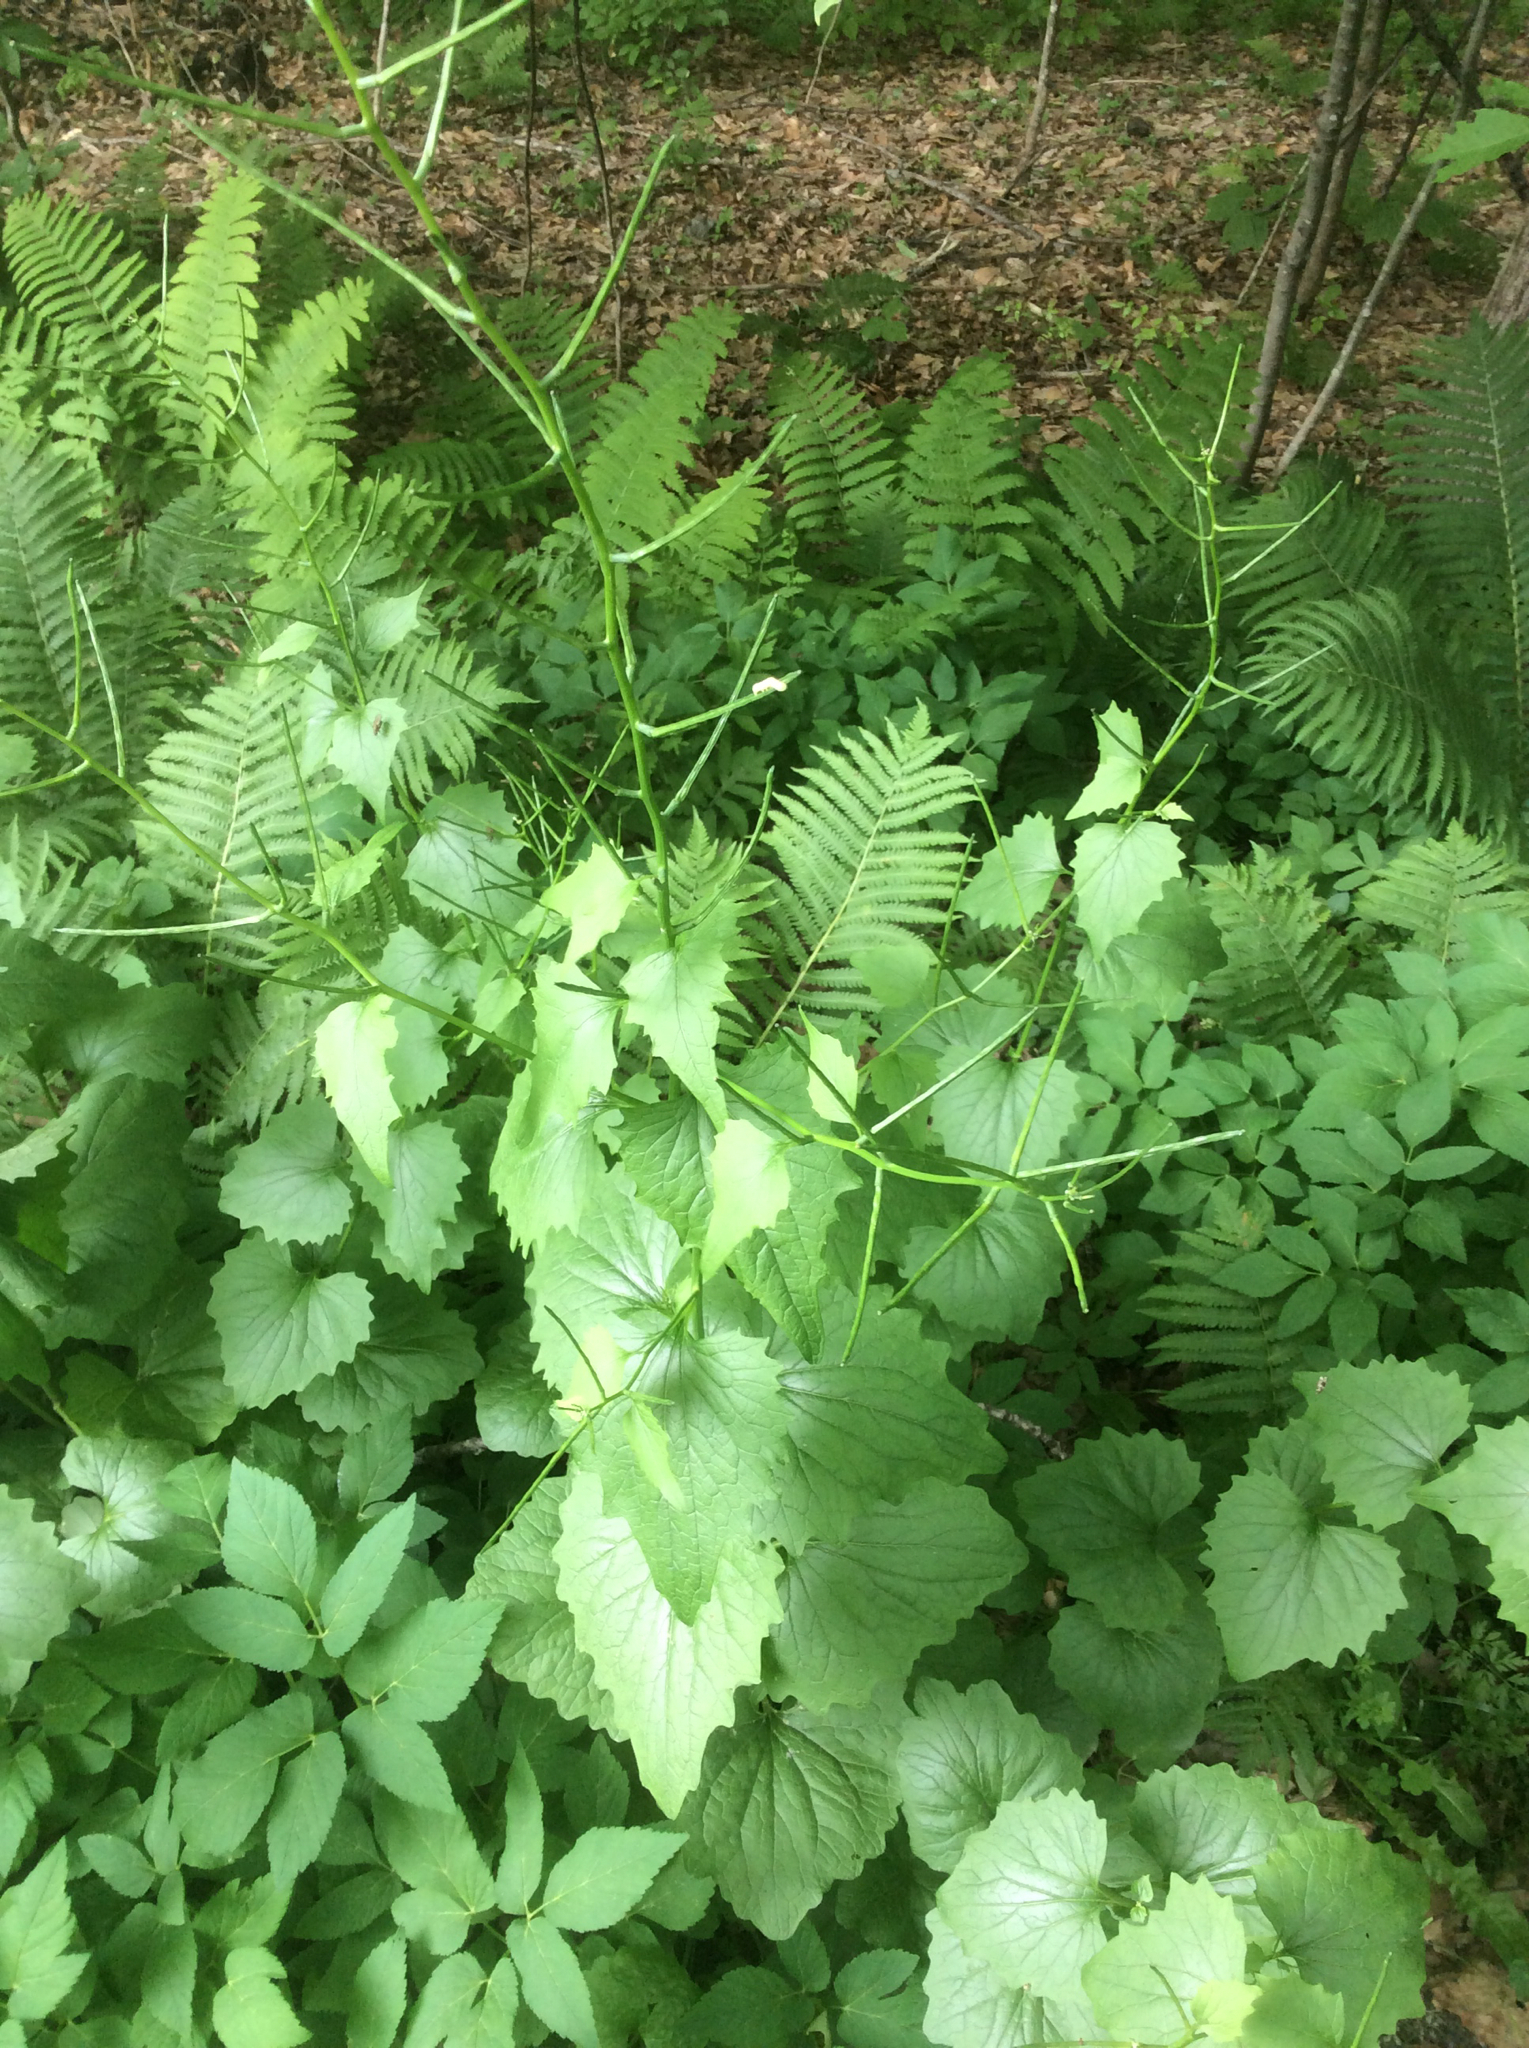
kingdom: Plantae
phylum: Tracheophyta
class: Magnoliopsida
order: Brassicales
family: Brassicaceae
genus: Alliaria
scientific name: Alliaria petiolata
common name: Garlic mustard
